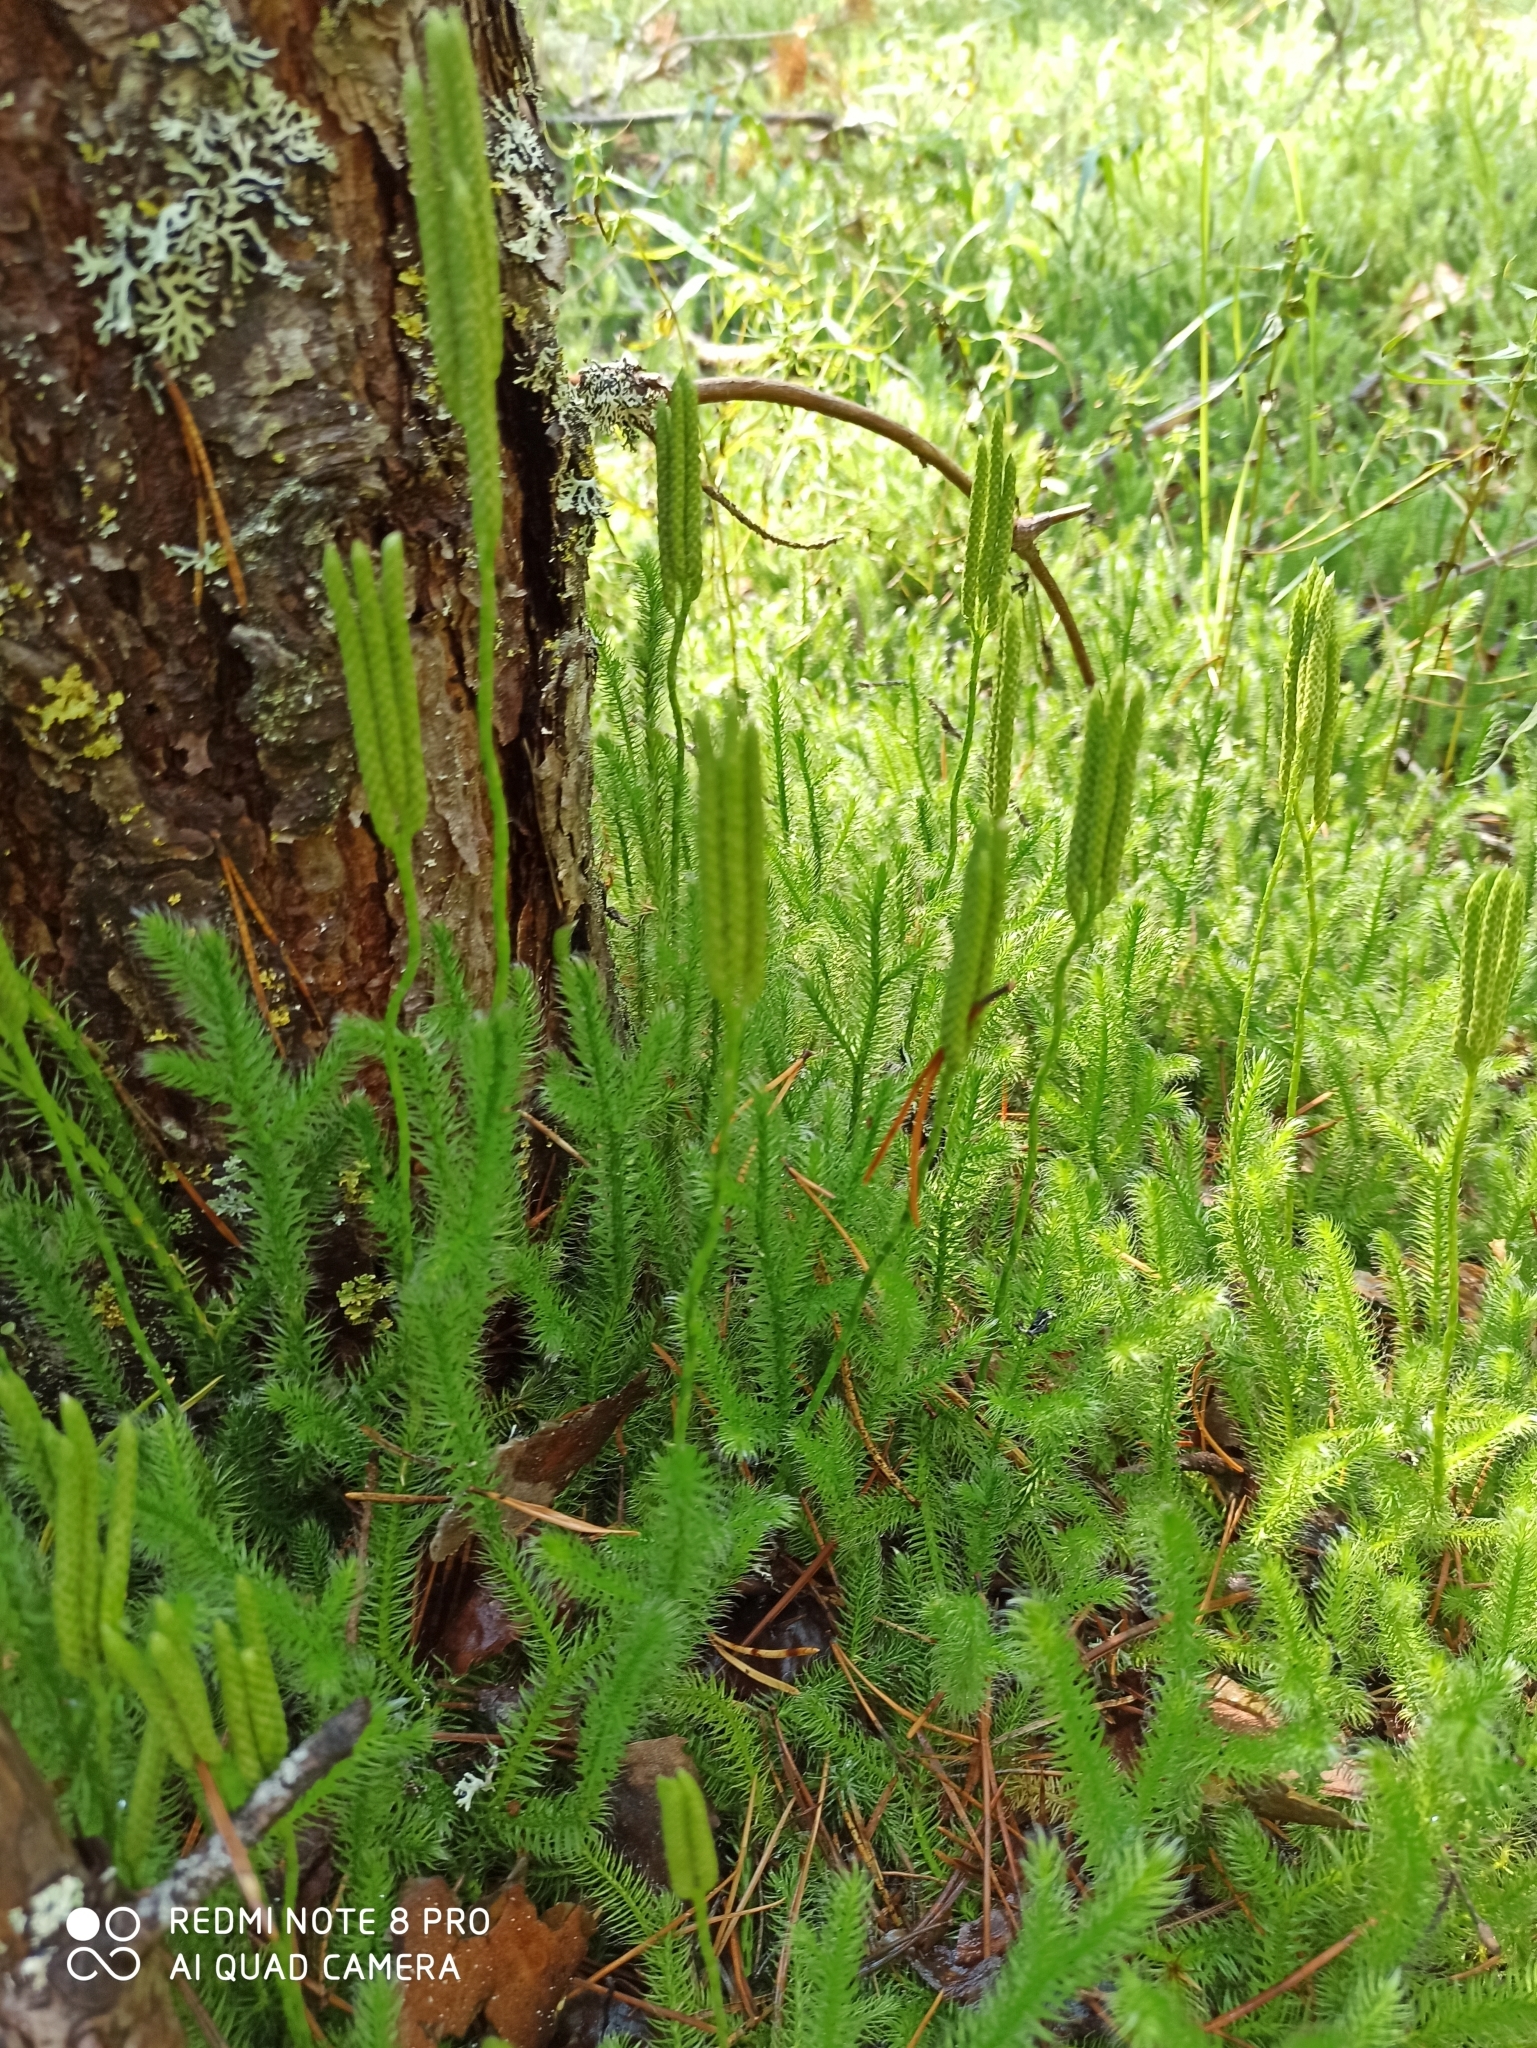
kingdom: Plantae
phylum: Tracheophyta
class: Lycopodiopsida
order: Lycopodiales
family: Lycopodiaceae
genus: Lycopodium
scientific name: Lycopodium clavatum
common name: Stag's-horn clubmoss
